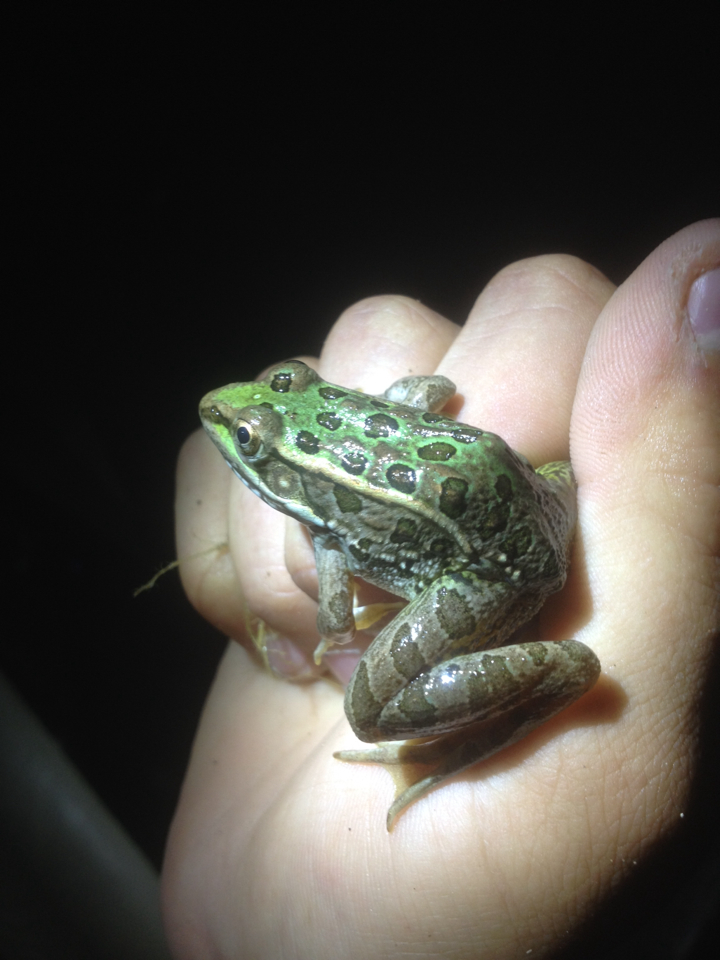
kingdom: Animalia
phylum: Chordata
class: Amphibia
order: Anura
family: Ranidae
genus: Lithobates
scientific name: Lithobates berlandieri
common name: Rio grande leopard frog
